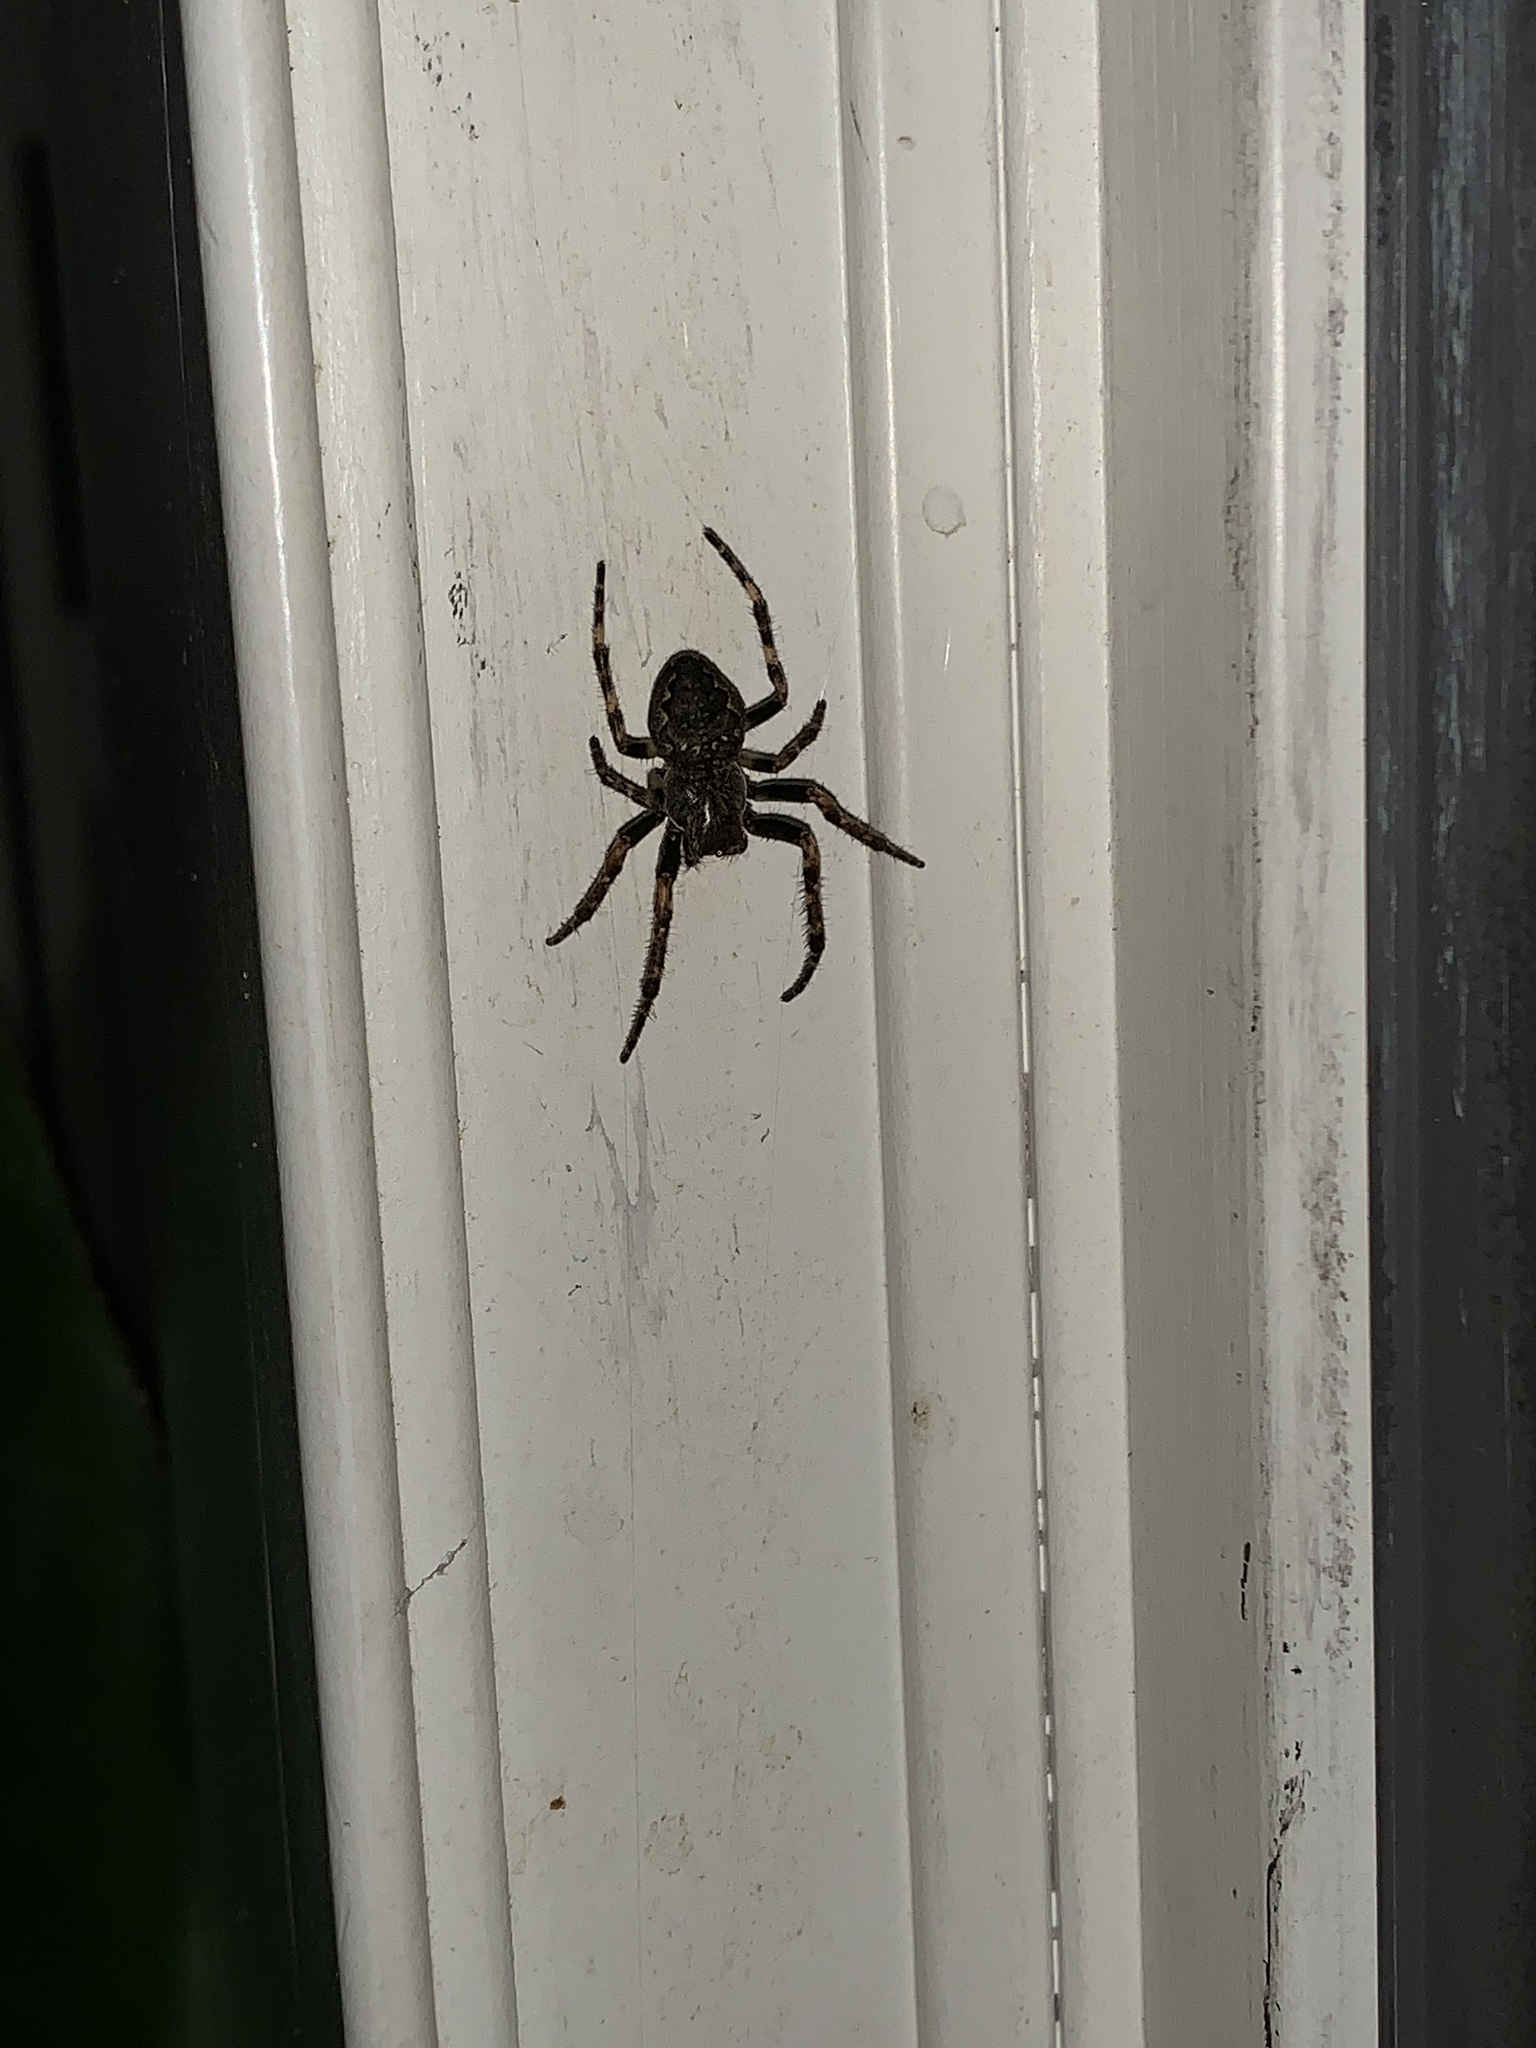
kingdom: Animalia
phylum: Arthropoda
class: Arachnida
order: Araneae
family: Araneidae
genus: Nuctenea
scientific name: Nuctenea umbratica
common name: Toad spider
